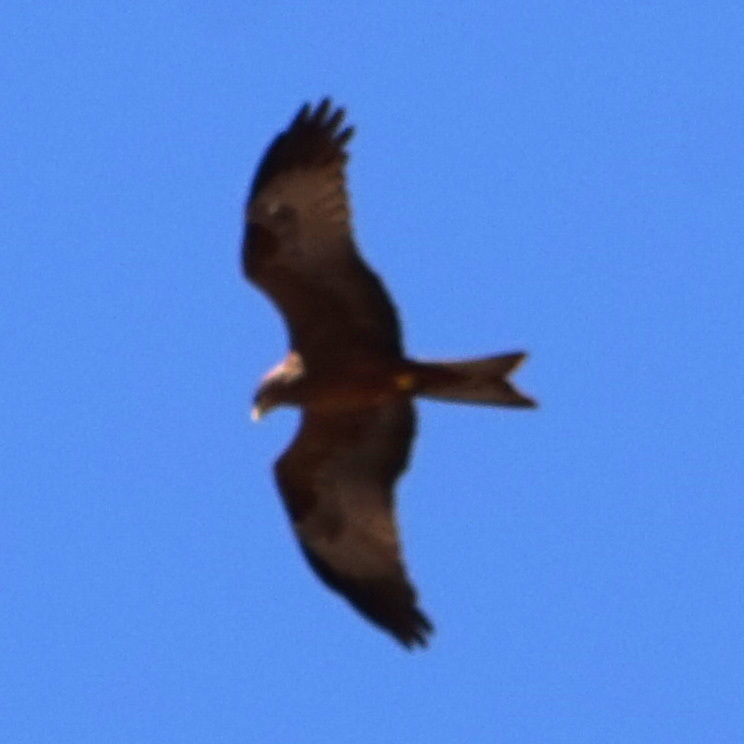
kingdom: Animalia
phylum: Chordata
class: Aves
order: Accipitriformes
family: Accipitridae
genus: Milvus
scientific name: Milvus migrans
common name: Black kite
